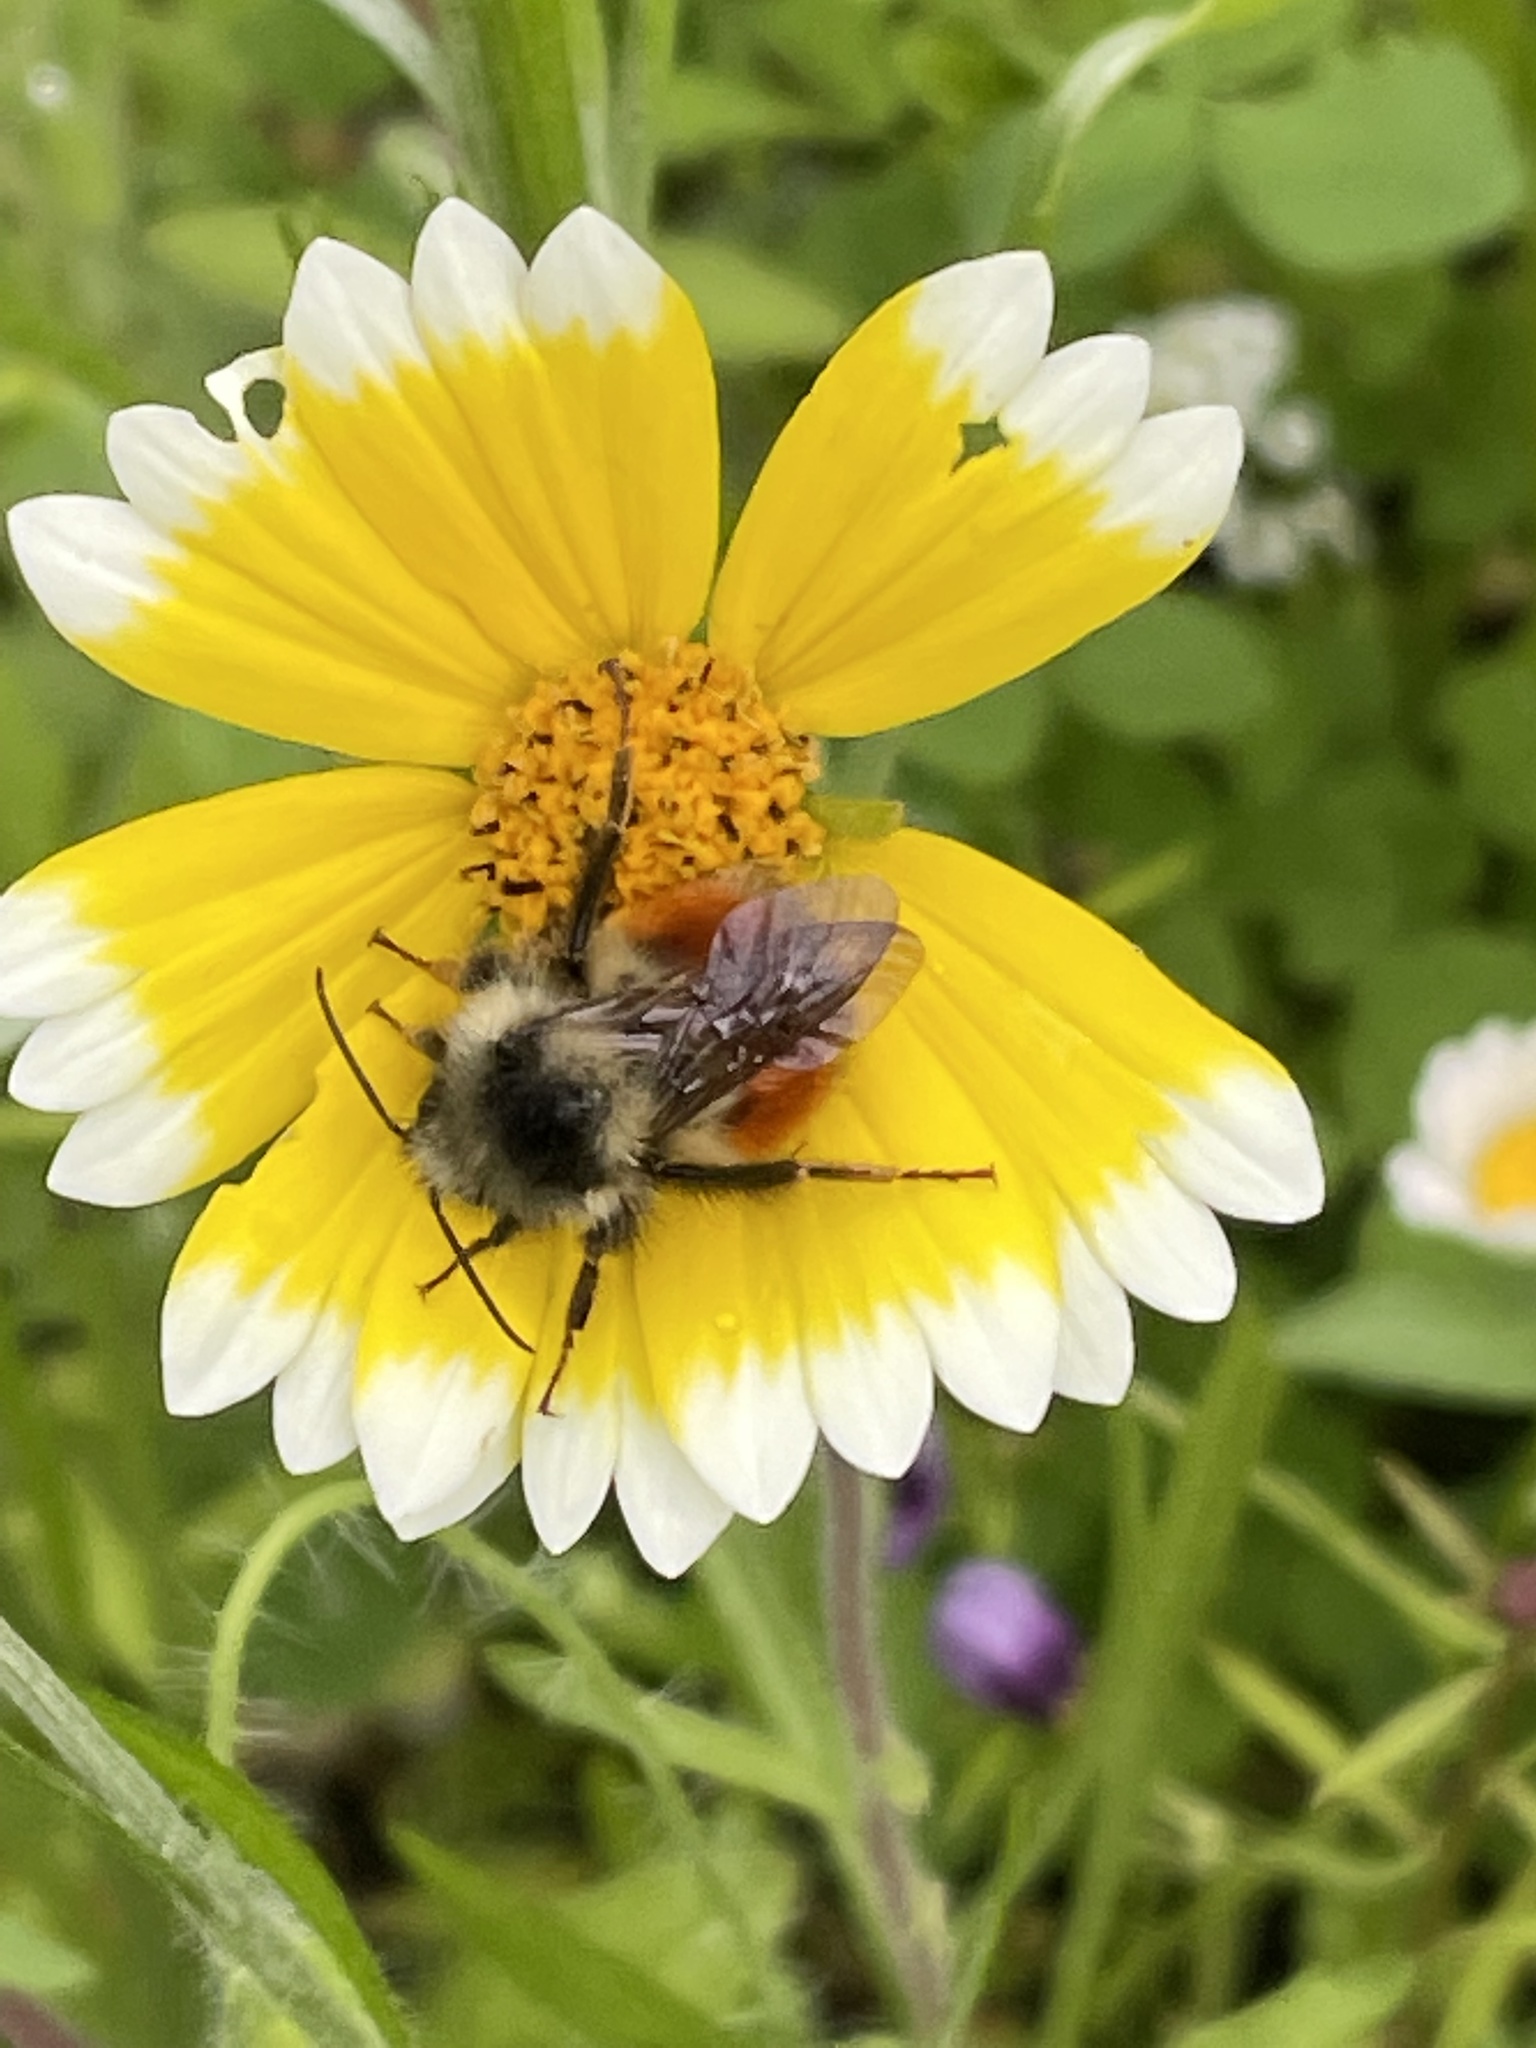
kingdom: Animalia
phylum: Arthropoda
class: Insecta
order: Hymenoptera
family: Apidae
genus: Bombus
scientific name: Bombus melanopygus
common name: Black tail bumble bee
